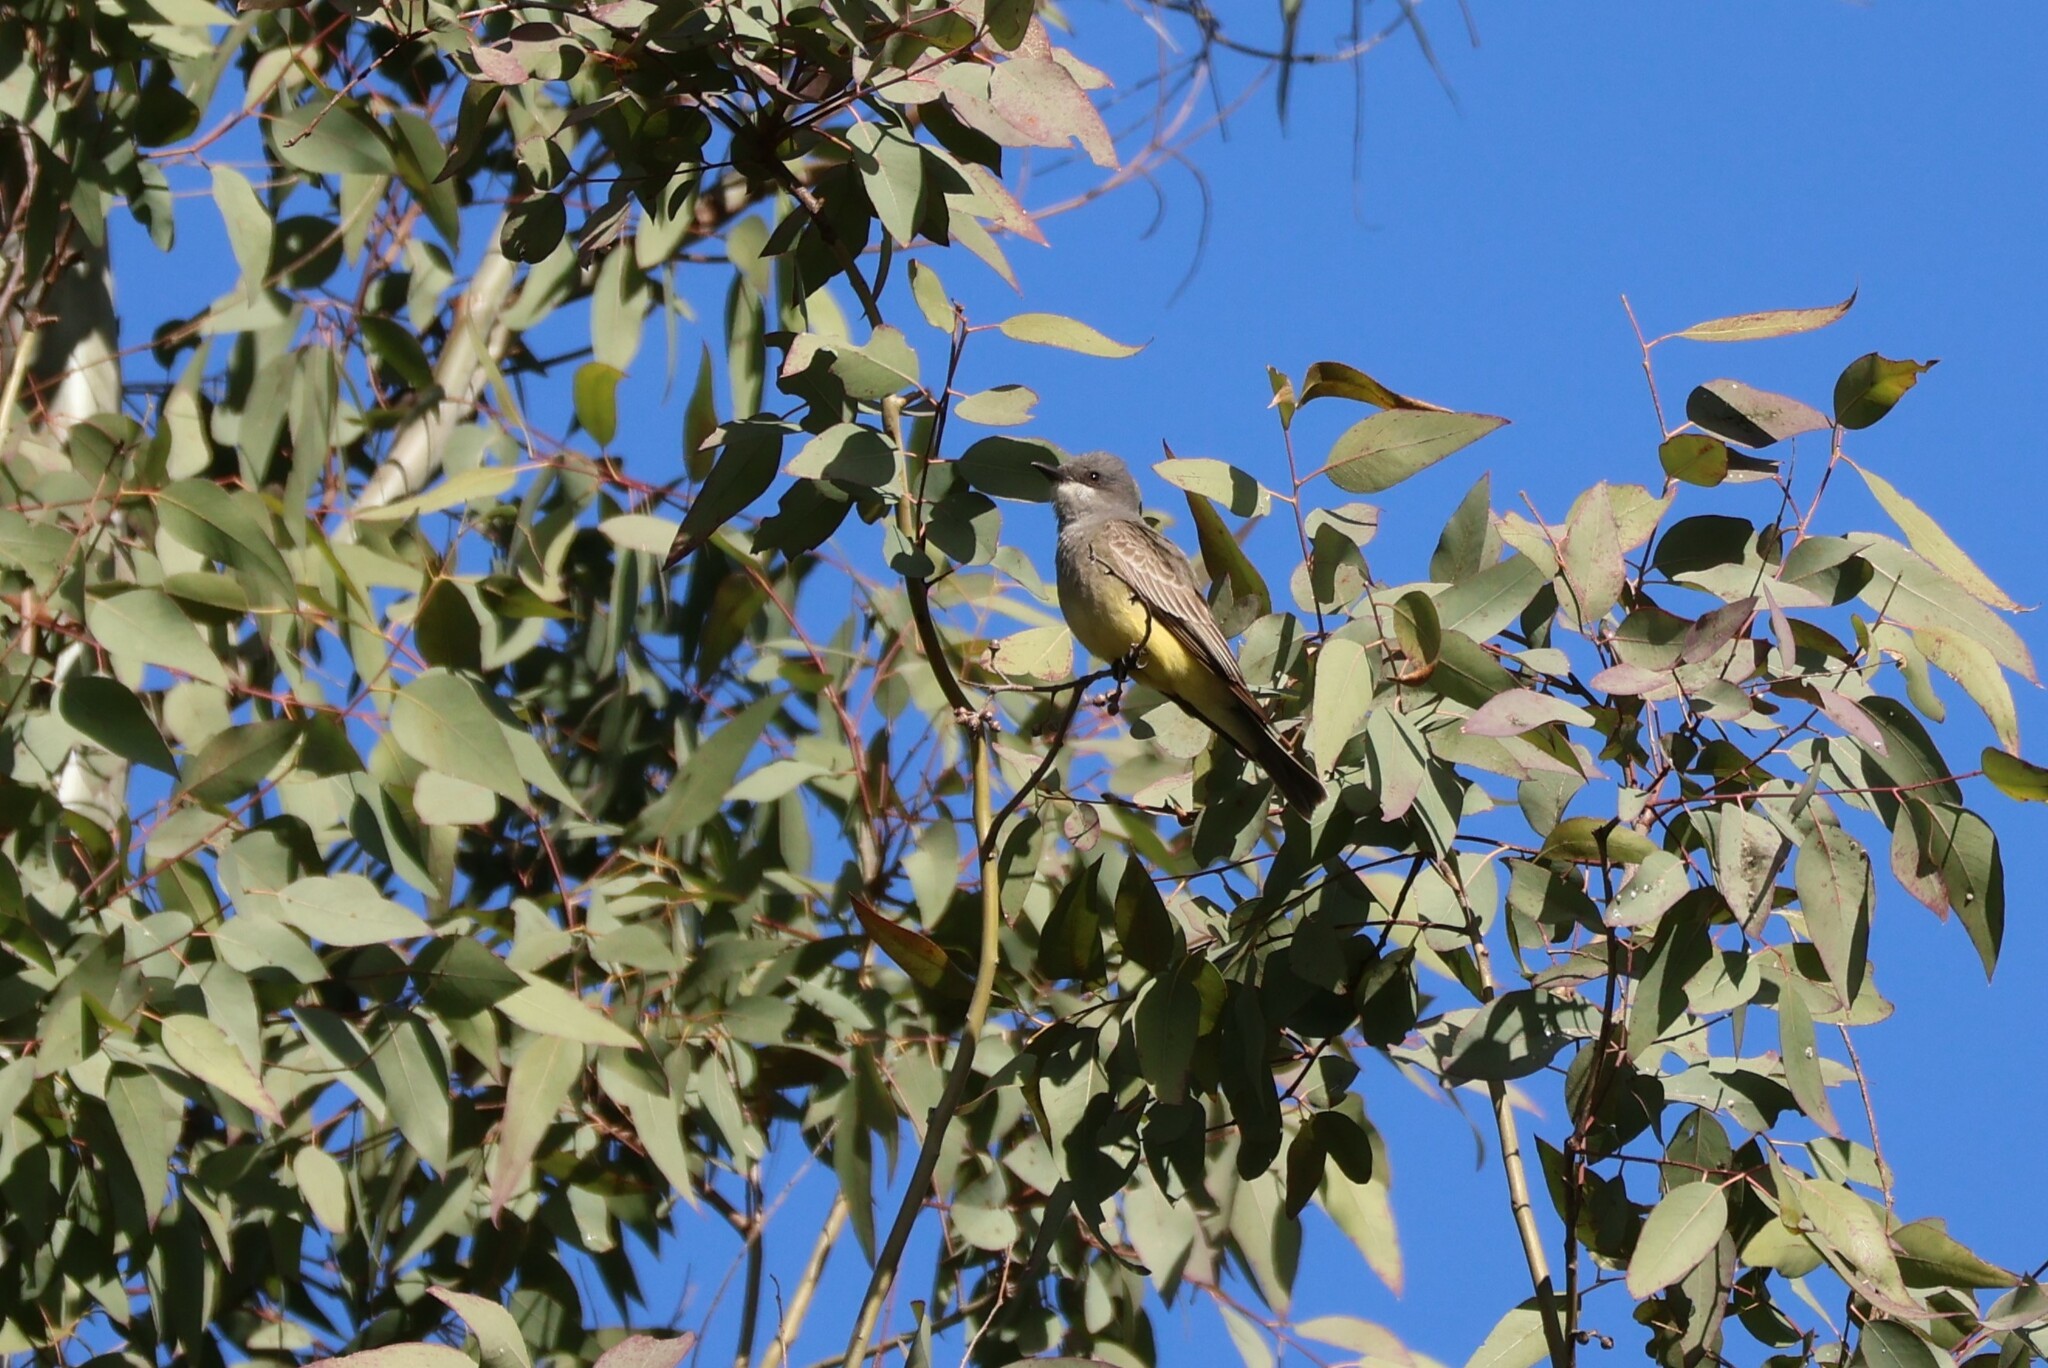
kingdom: Animalia
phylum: Chordata
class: Aves
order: Passeriformes
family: Tyrannidae
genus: Tyrannus
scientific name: Tyrannus vociferans
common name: Cassin's kingbird
